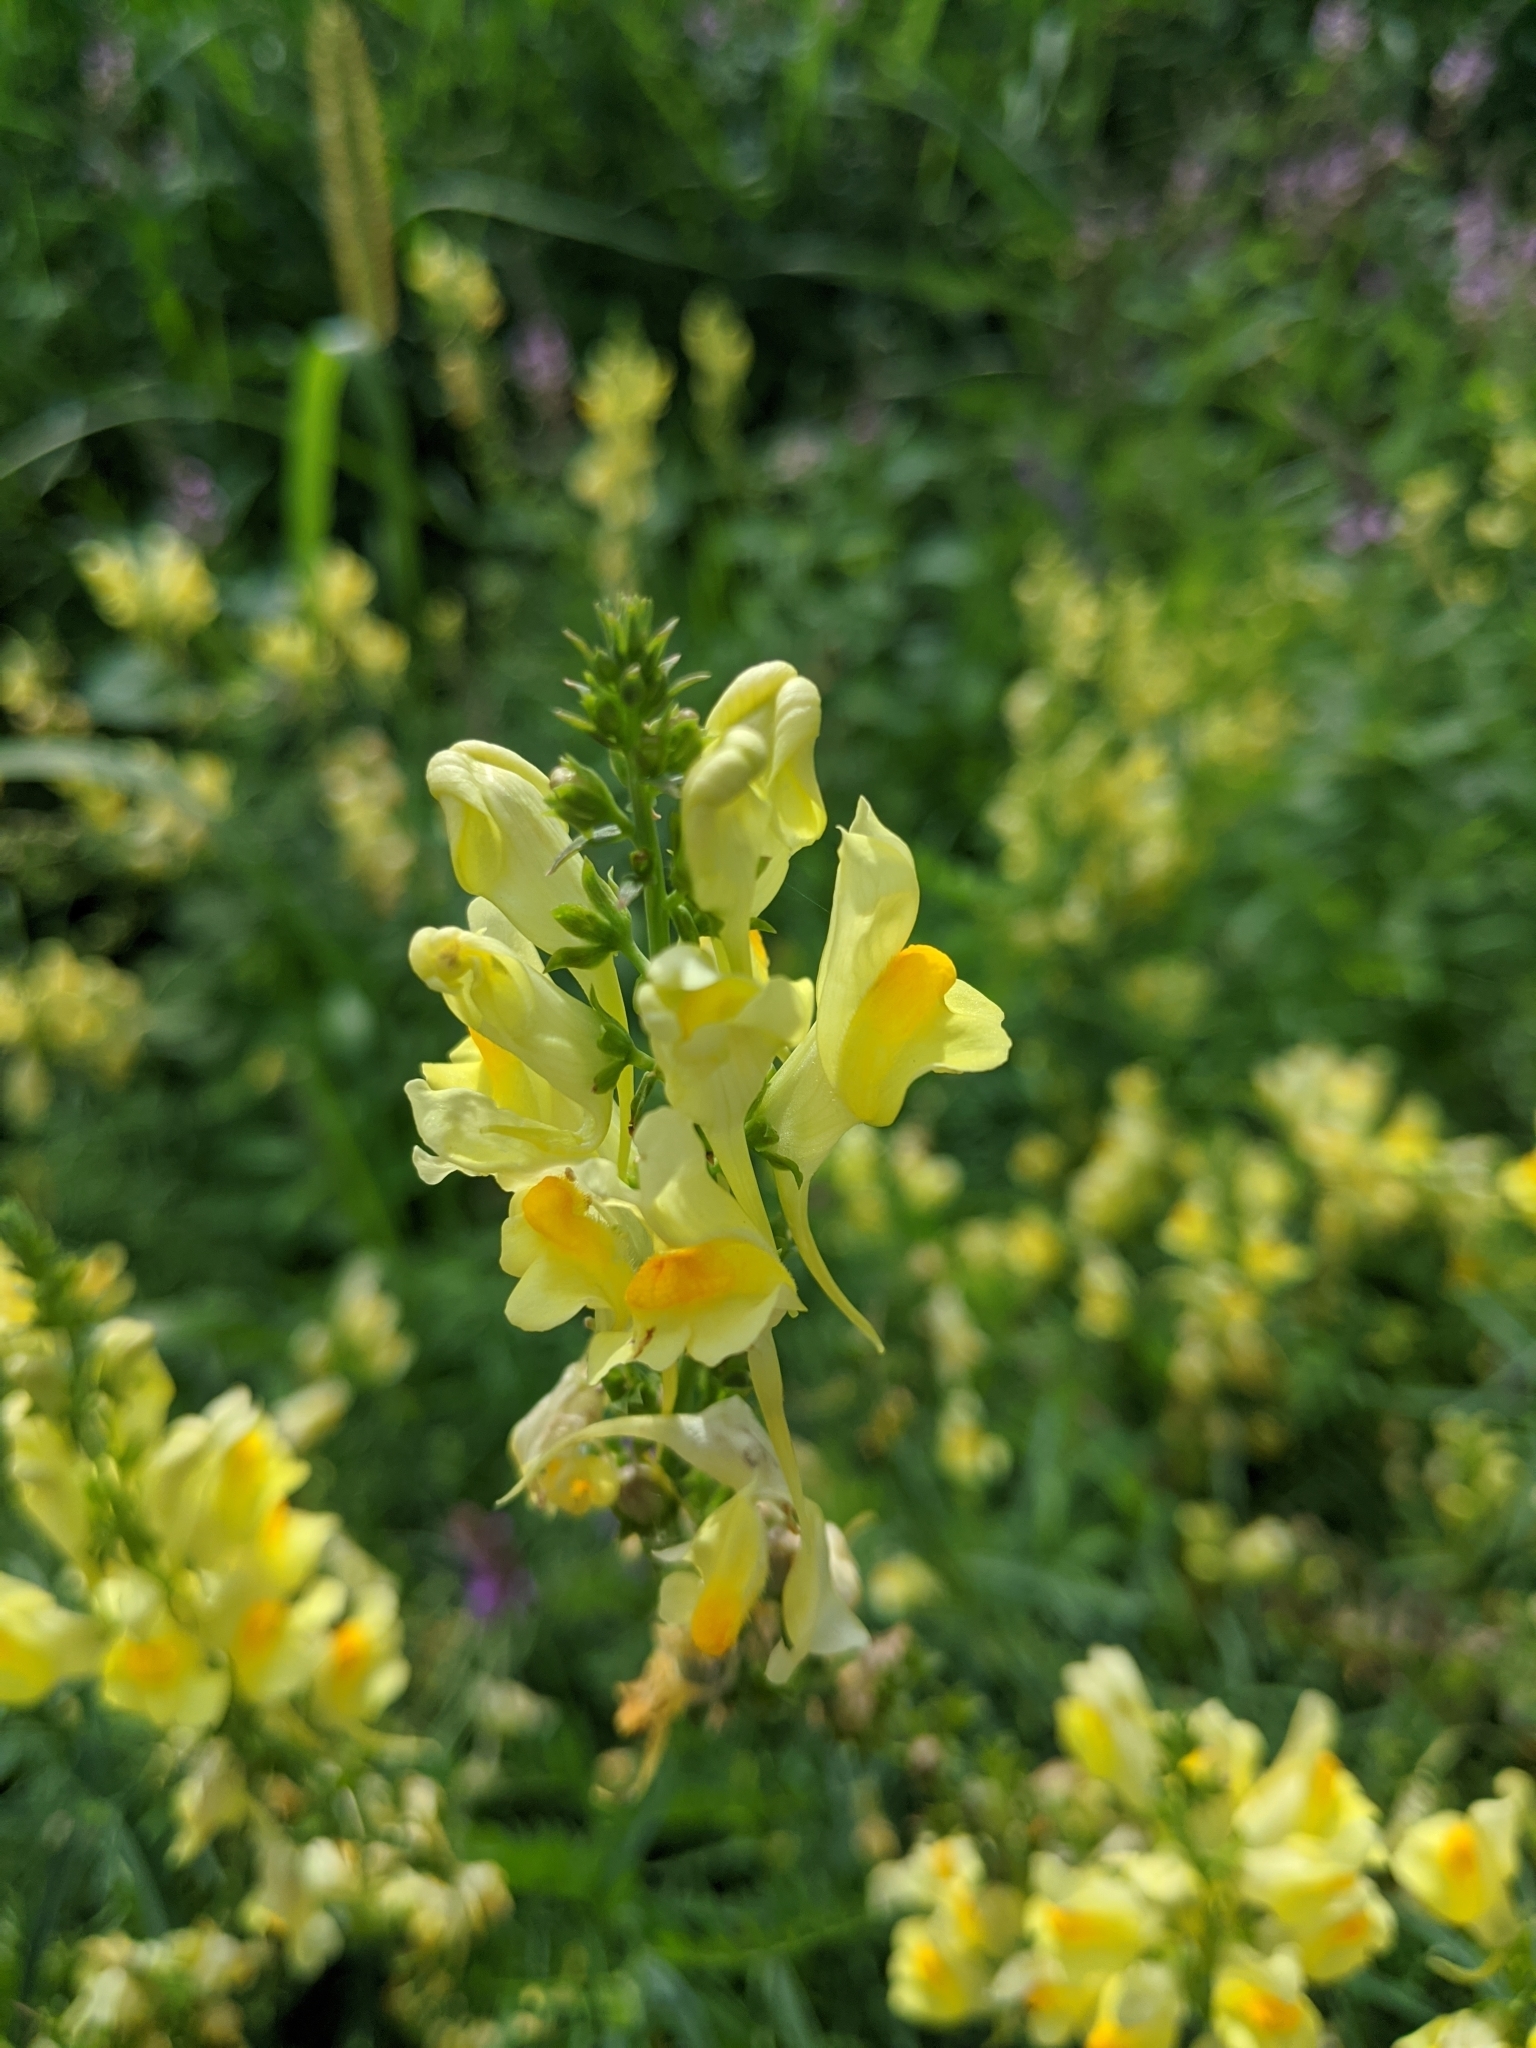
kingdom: Plantae
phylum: Tracheophyta
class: Magnoliopsida
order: Lamiales
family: Plantaginaceae
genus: Linaria
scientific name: Linaria vulgaris
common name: Butter and eggs
